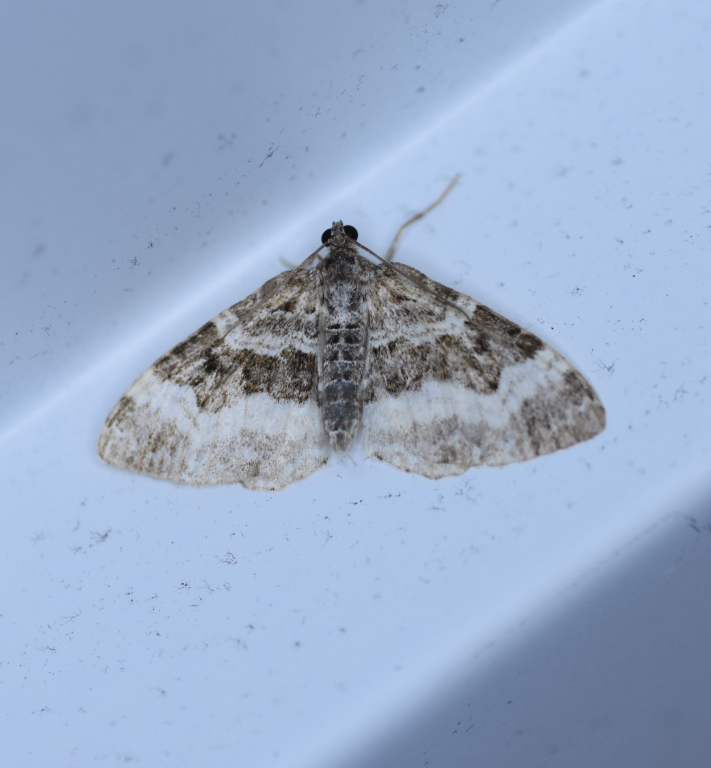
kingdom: Animalia
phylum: Arthropoda
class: Insecta
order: Lepidoptera
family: Geometridae
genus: Epirrhoe
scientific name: Epirrhoe alternata
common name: Common carpet
